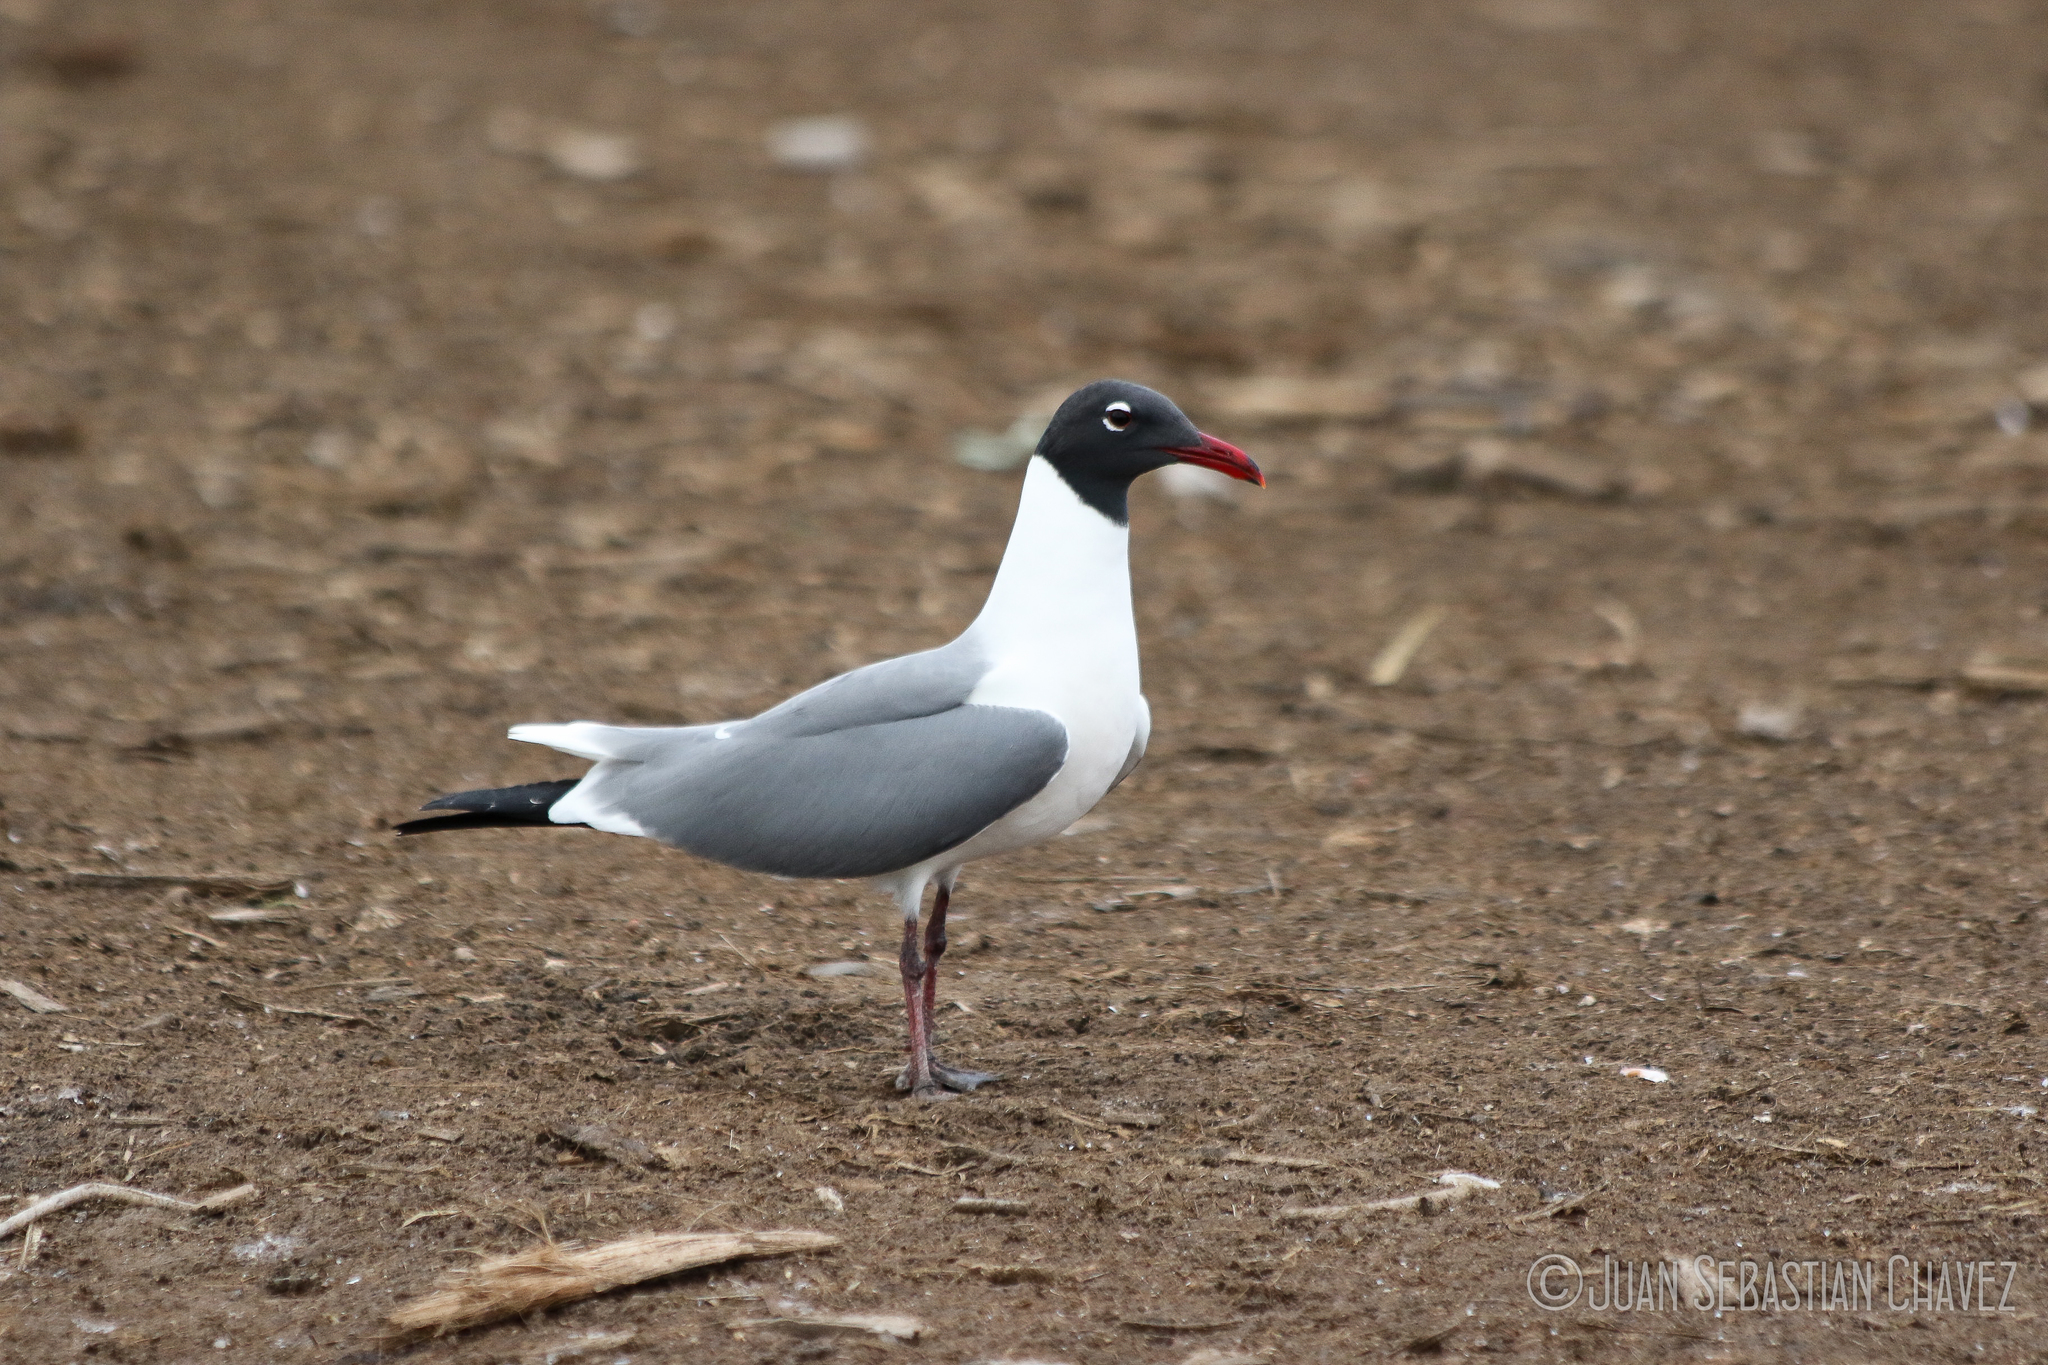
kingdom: Animalia
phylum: Chordata
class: Aves
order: Charadriiformes
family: Laridae
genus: Leucophaeus
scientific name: Leucophaeus atricilla
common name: Laughing gull
